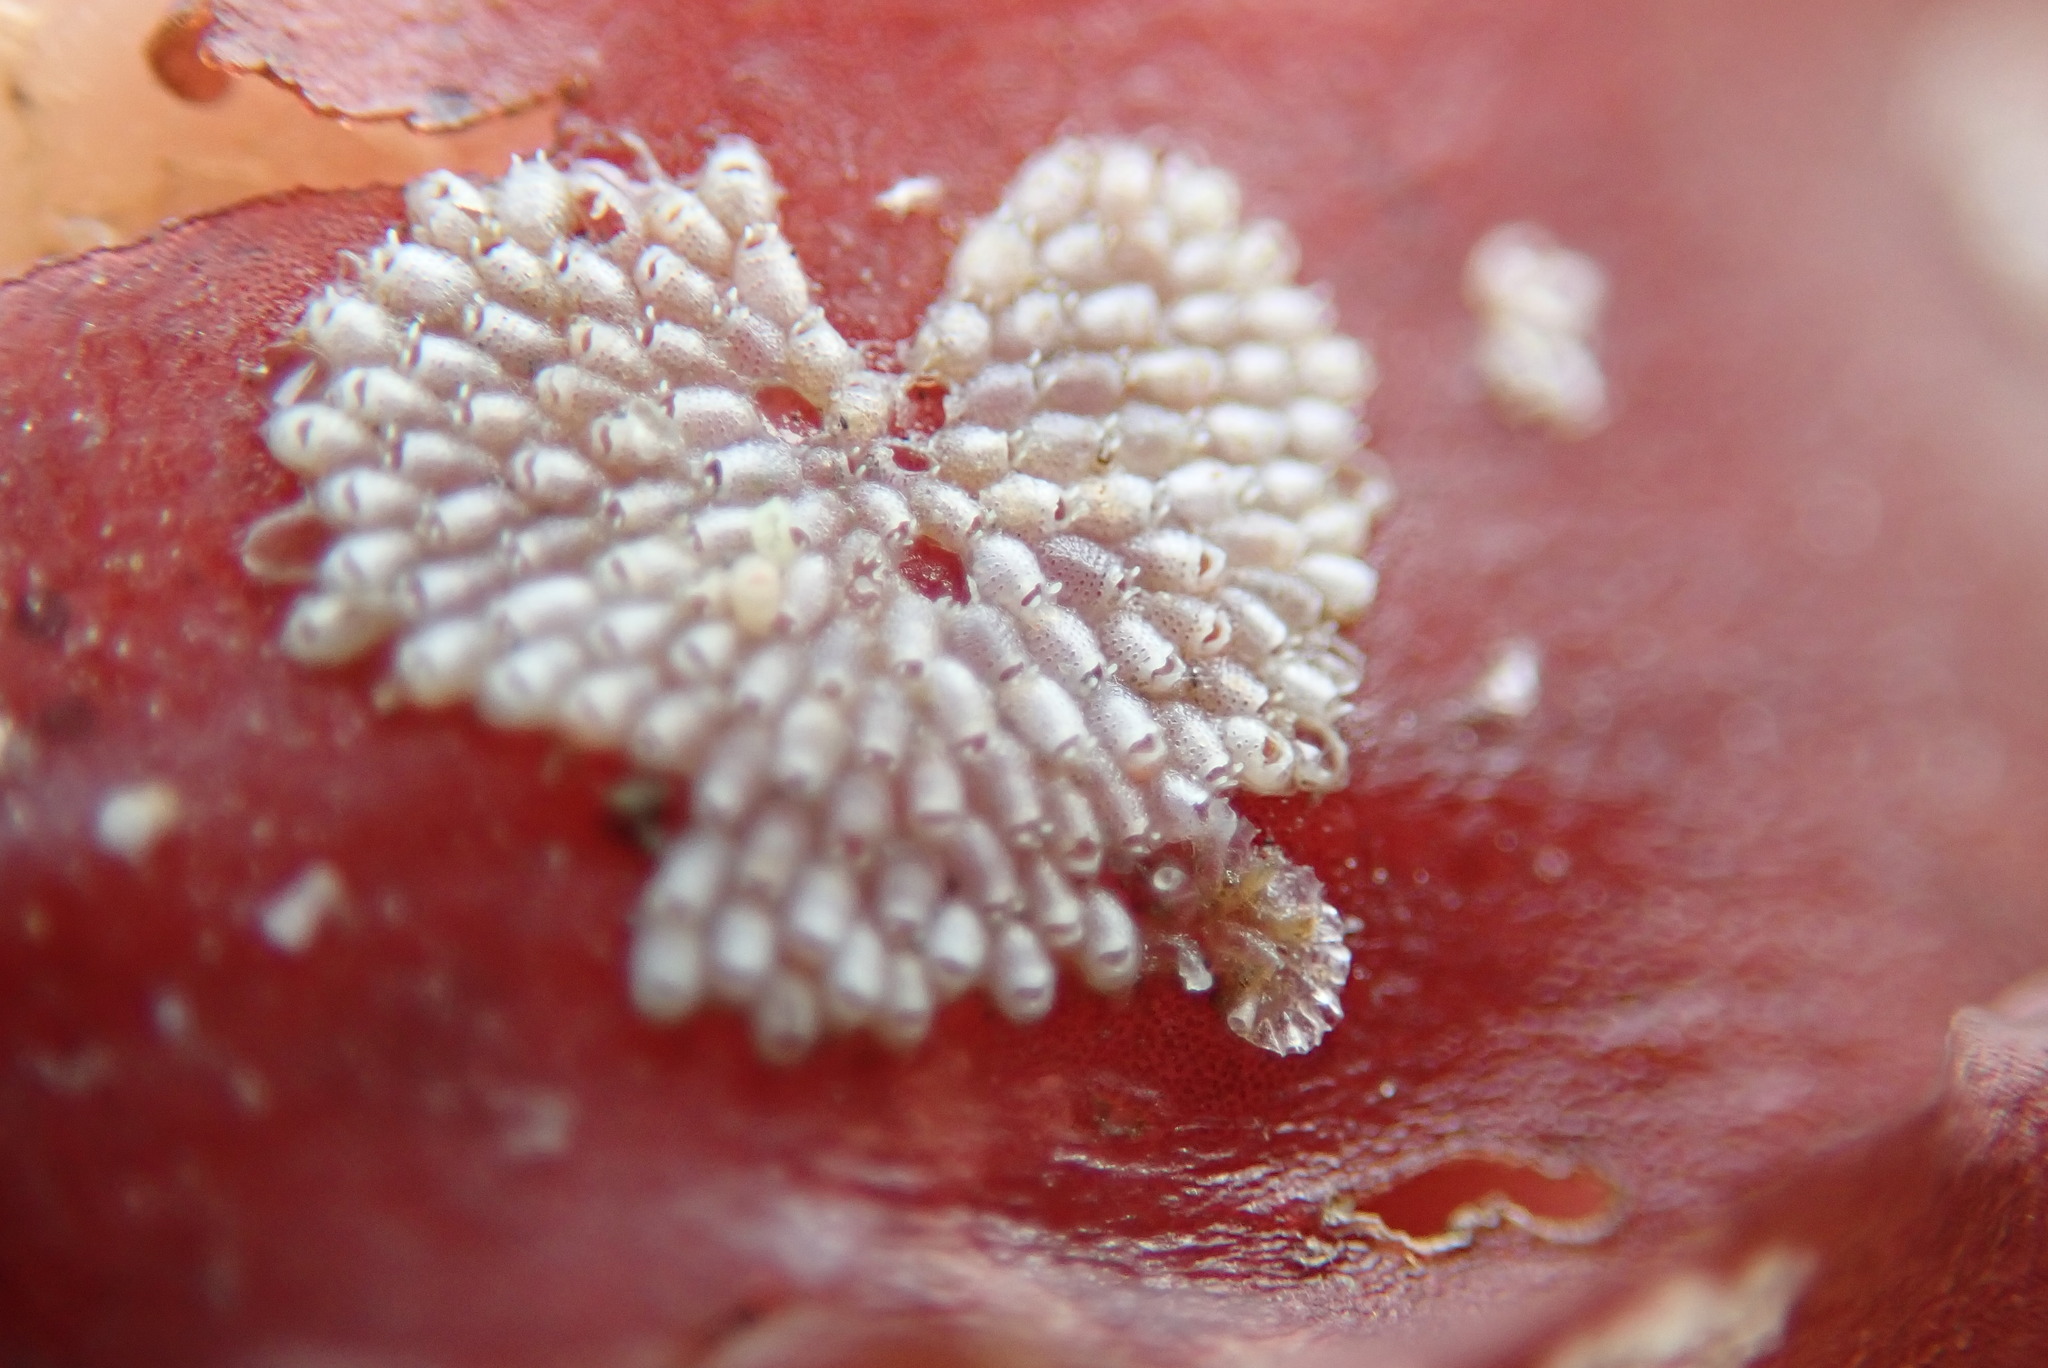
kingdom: Animalia
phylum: Bryozoa
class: Gymnolaemata
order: Cheilostomatida
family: Cribrilinidae
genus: Juxtacribrilina
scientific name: Juxtacribrilina annulata
